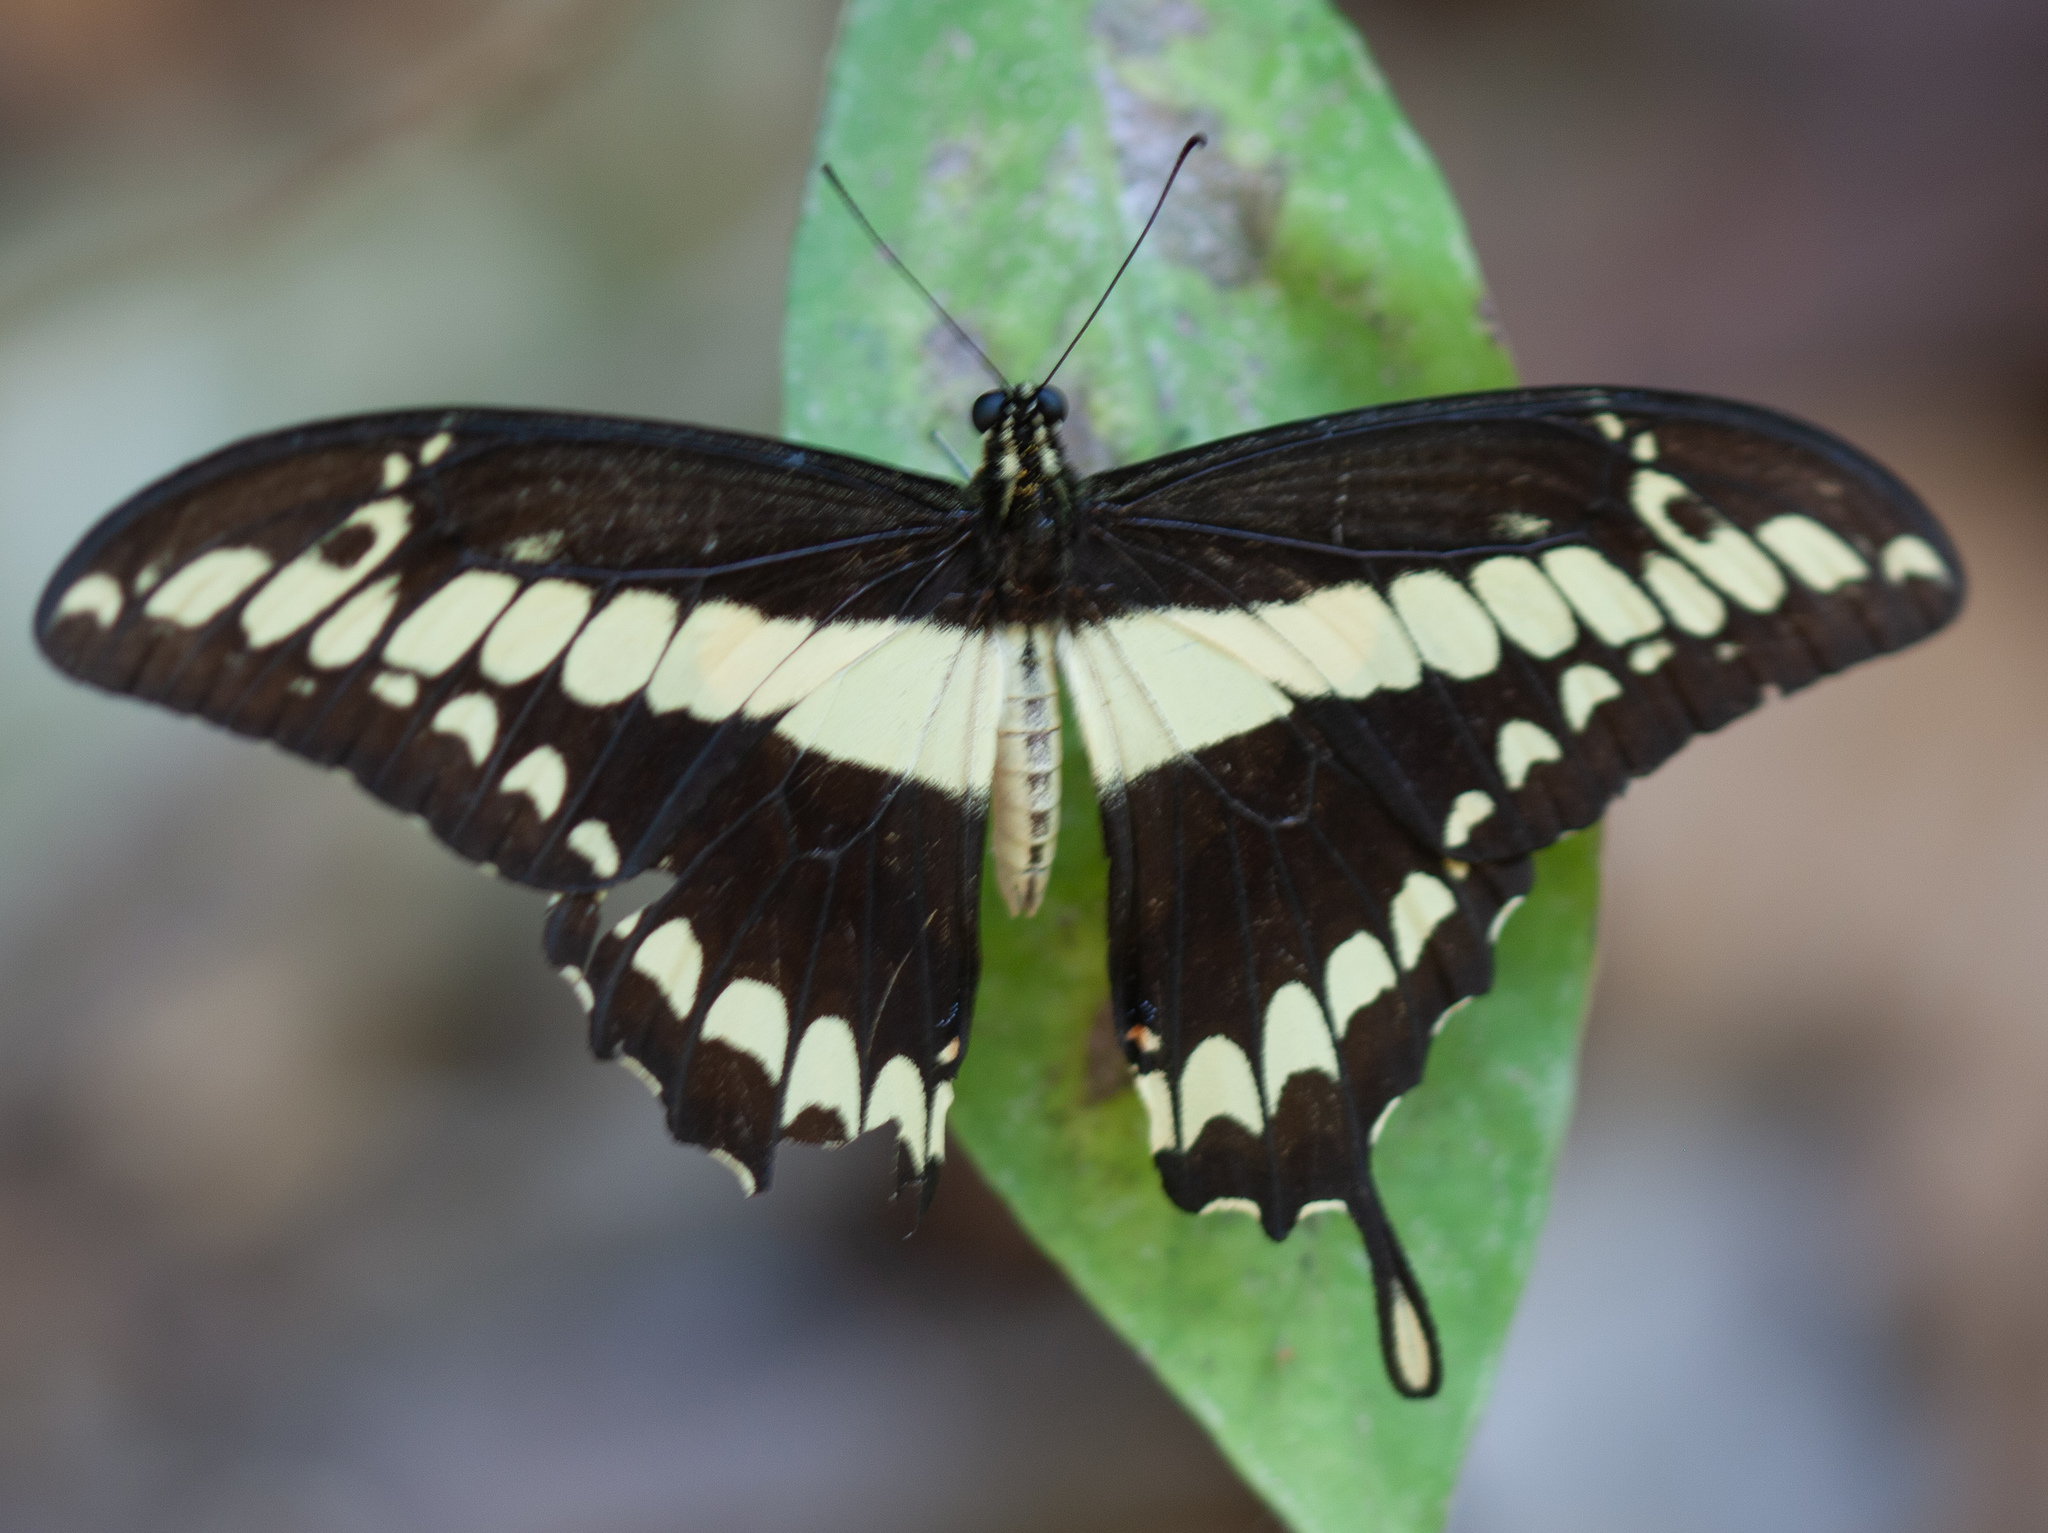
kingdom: Animalia
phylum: Arthropoda
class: Insecta
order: Lepidoptera
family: Papilionidae
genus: Papilio
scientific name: Papilio thoas
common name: King swallowtail
